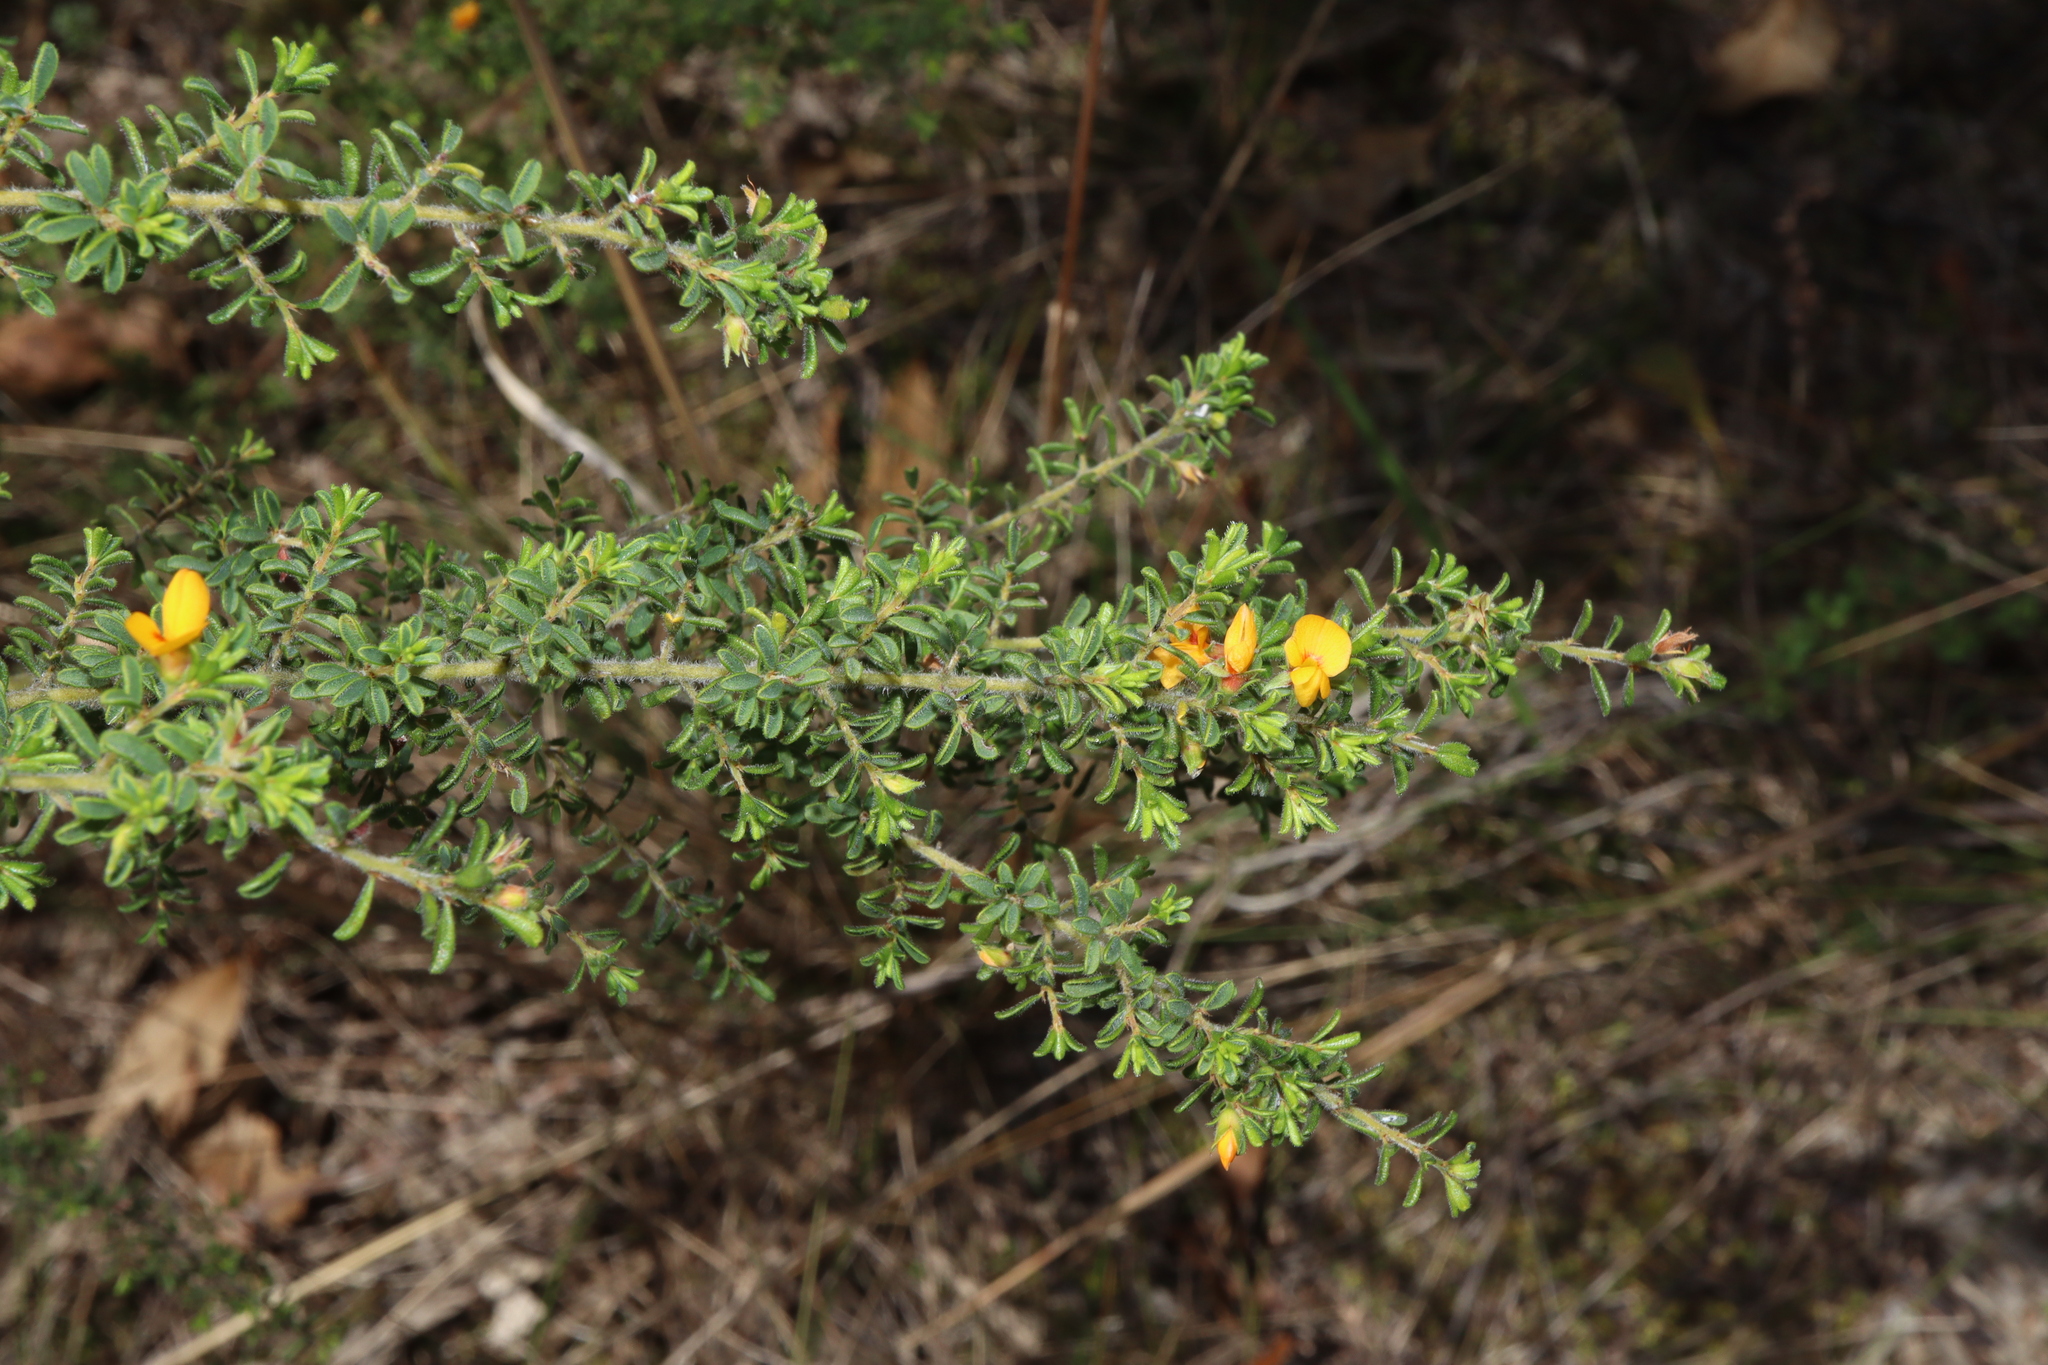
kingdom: Plantae
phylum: Tracheophyta
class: Magnoliopsida
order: Fabales
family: Fabaceae
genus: Pultenaea
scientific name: Pultenaea villosa
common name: Bronze bush-pea
